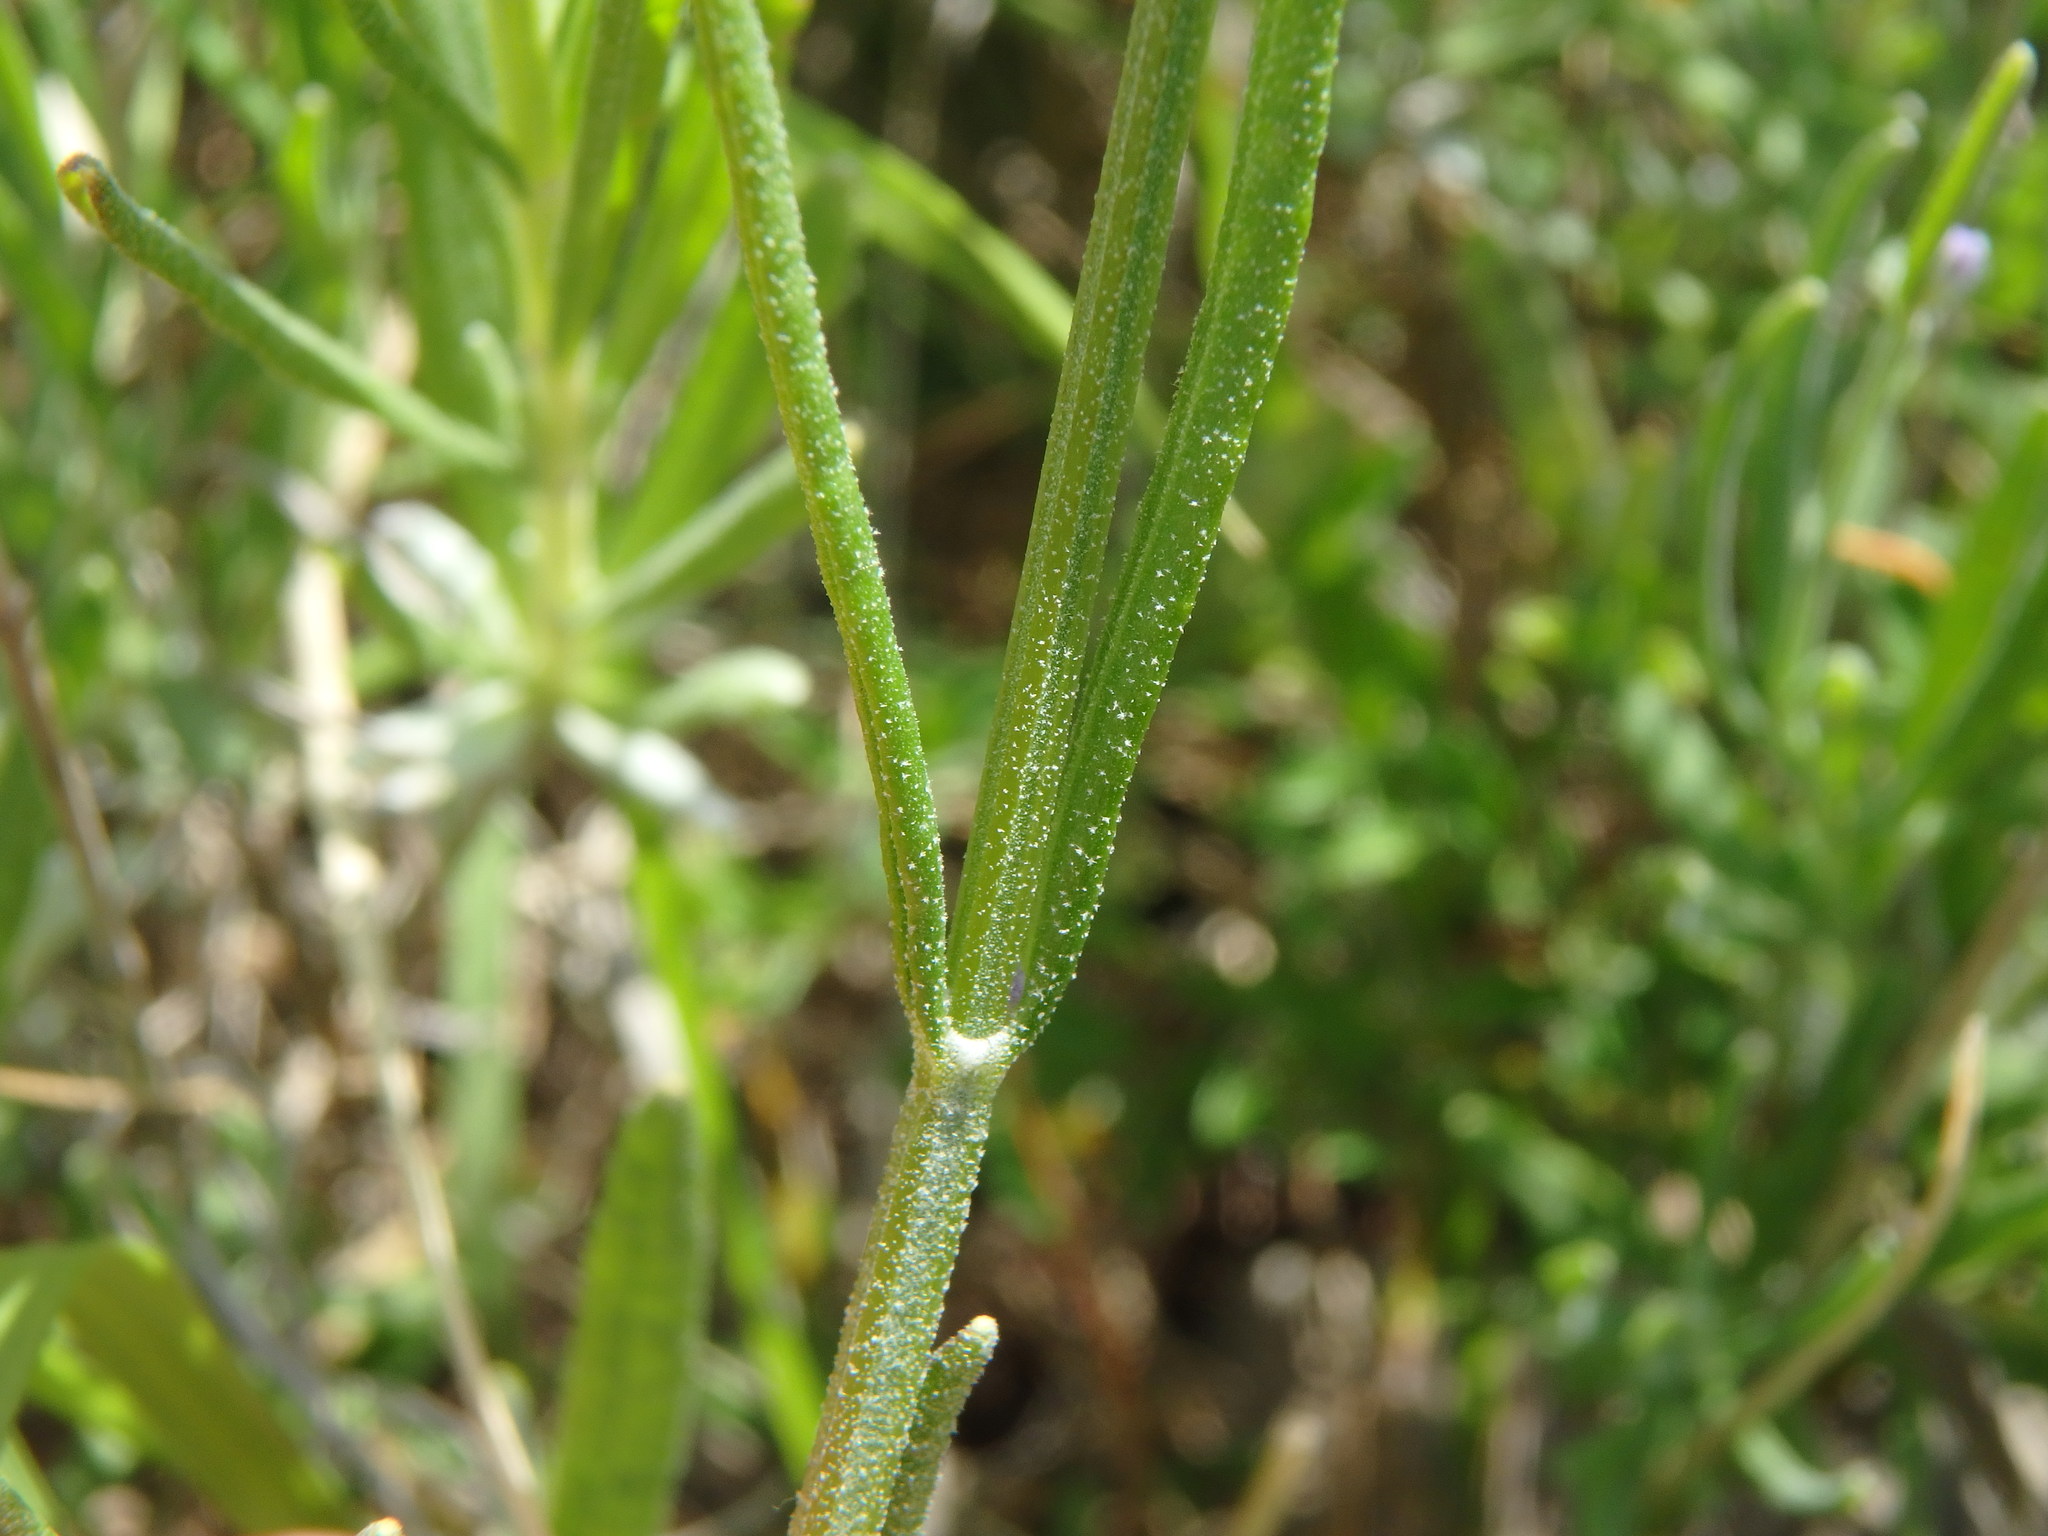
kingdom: Plantae
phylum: Tracheophyta
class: Magnoliopsida
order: Lamiales
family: Lamiaceae
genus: Lavandula
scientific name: Lavandula angustifolia
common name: Garden lavender
